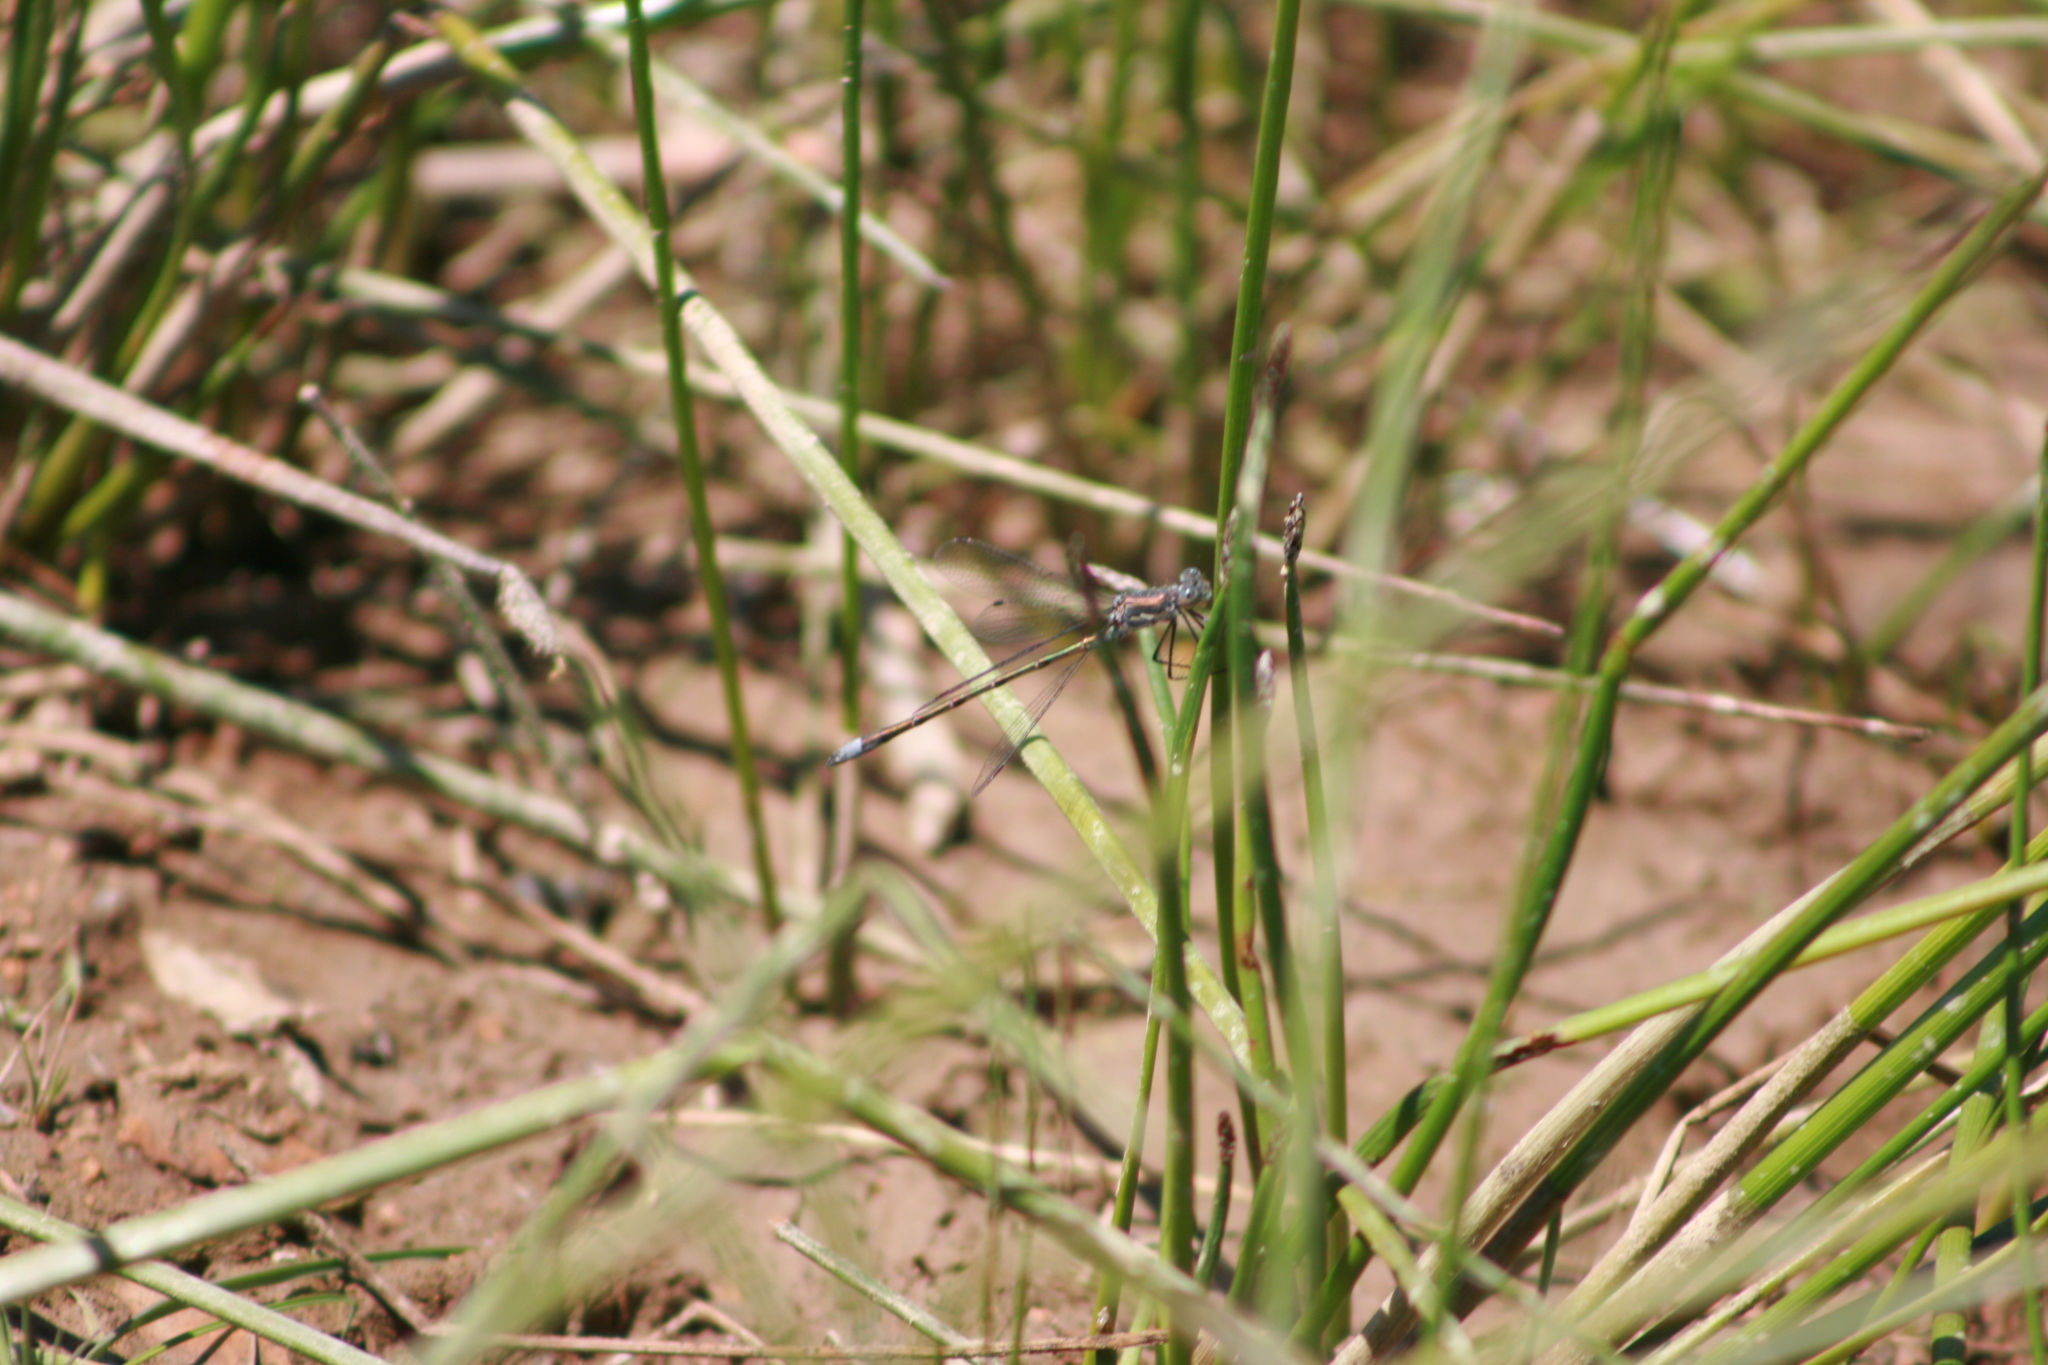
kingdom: Animalia
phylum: Arthropoda
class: Insecta
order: Odonata
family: Lestidae
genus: Lestes
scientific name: Lestes stultus
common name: Black spreadwing
